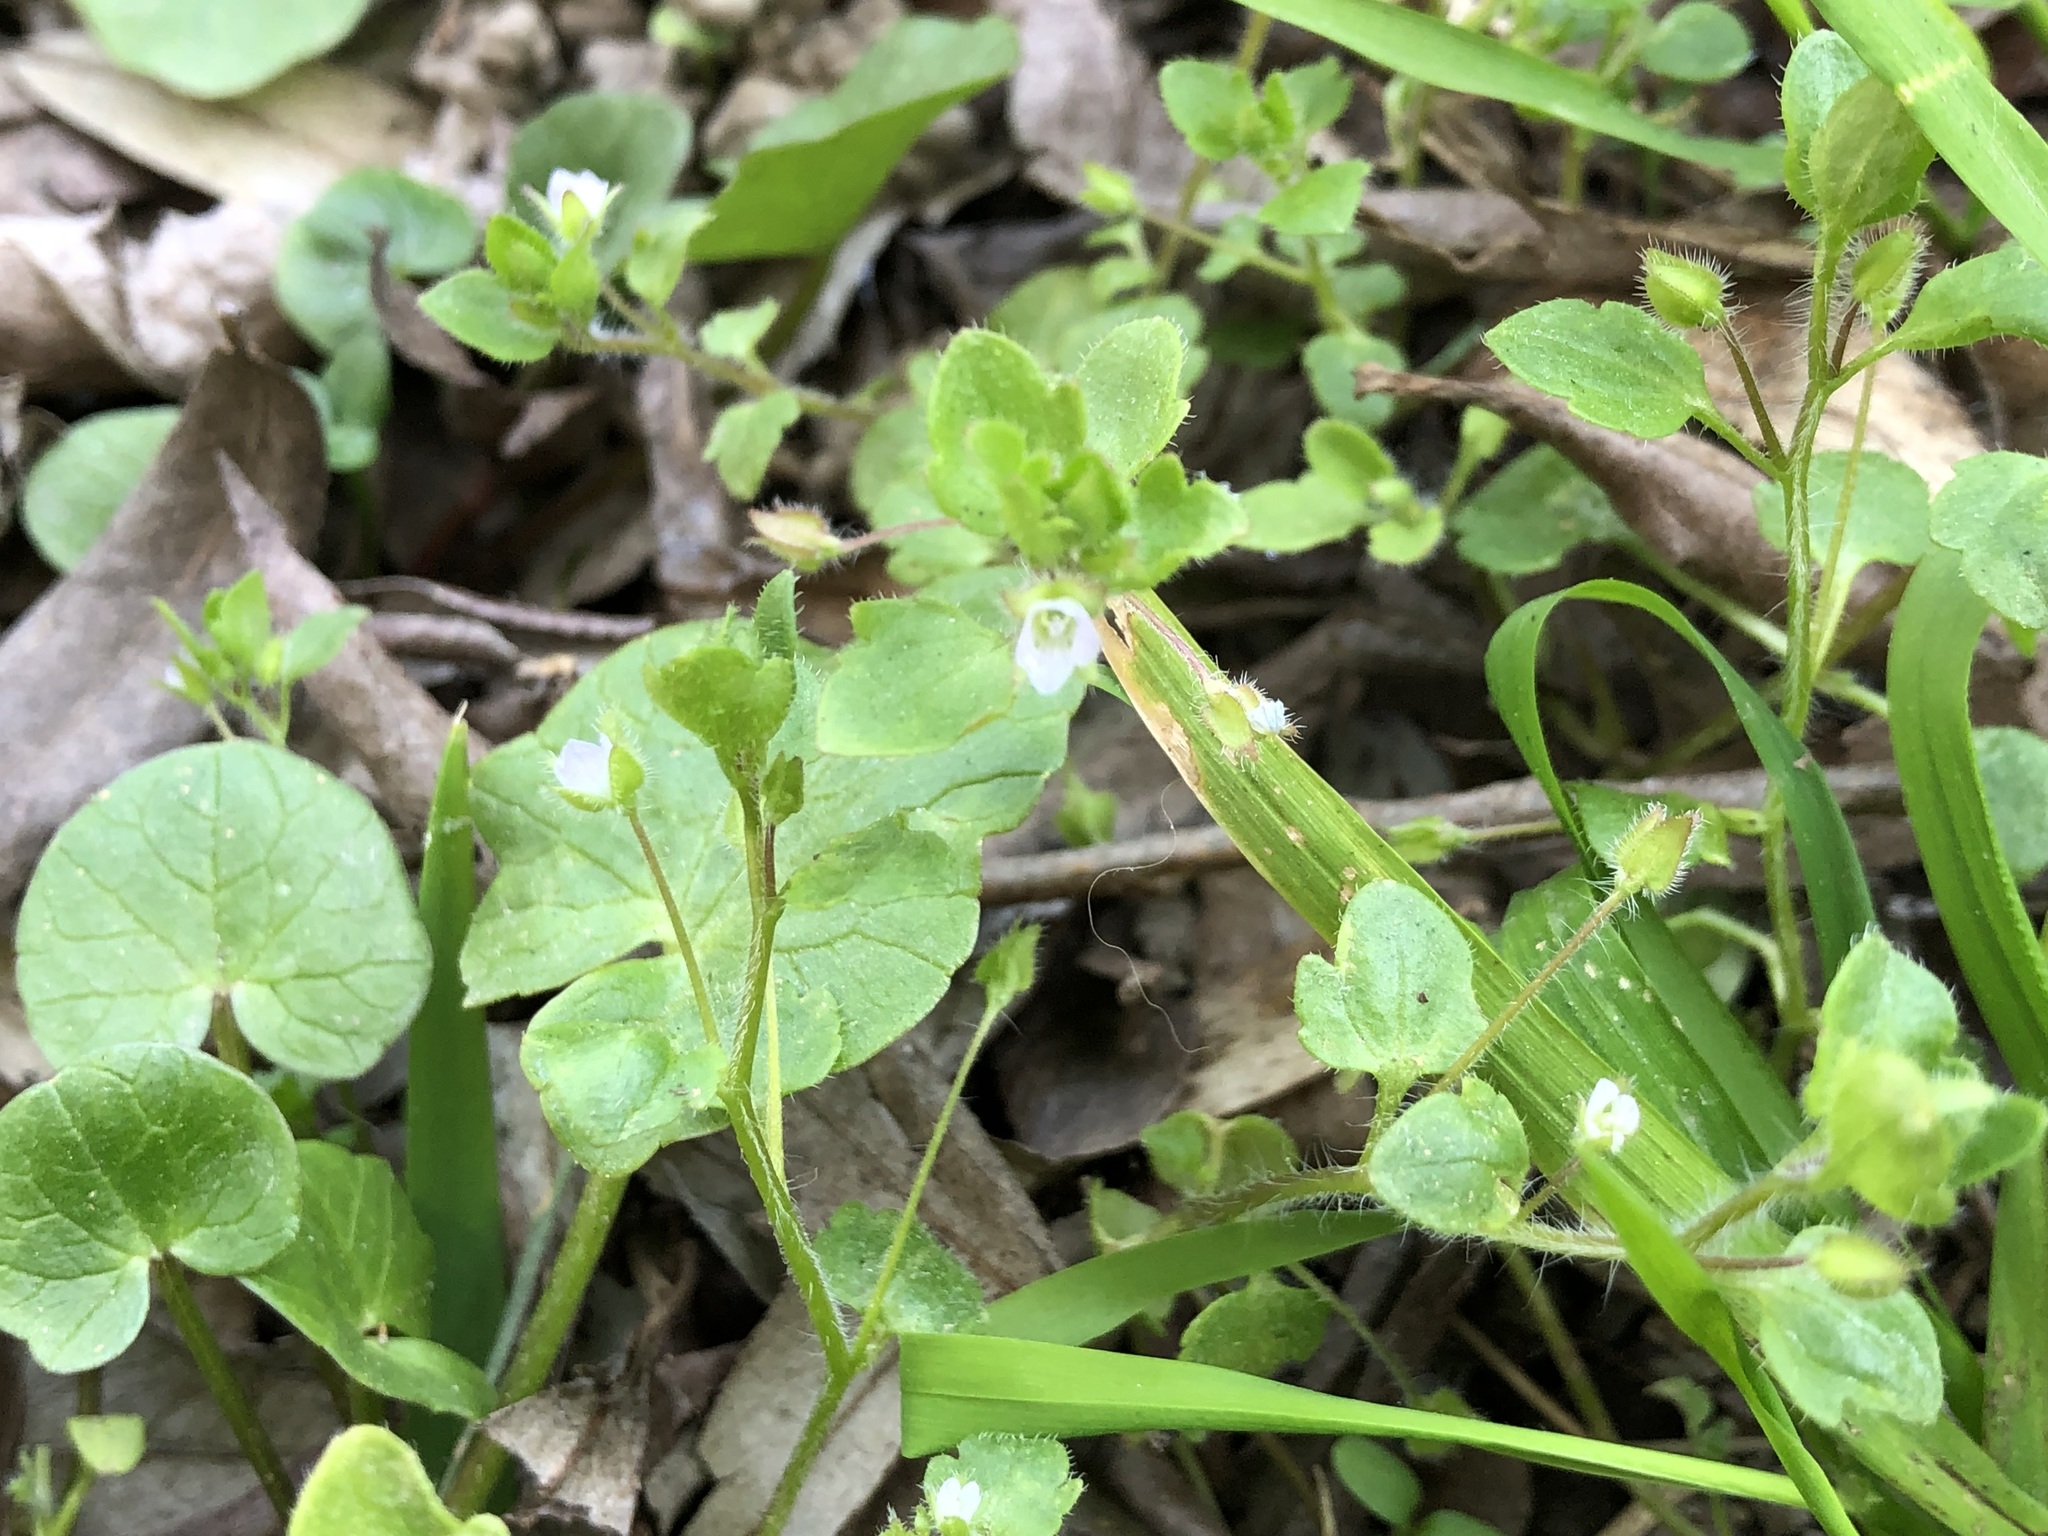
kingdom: Plantae
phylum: Tracheophyta
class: Magnoliopsida
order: Lamiales
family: Plantaginaceae
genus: Veronica
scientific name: Veronica sublobata
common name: False ivy-leaved speedwell
